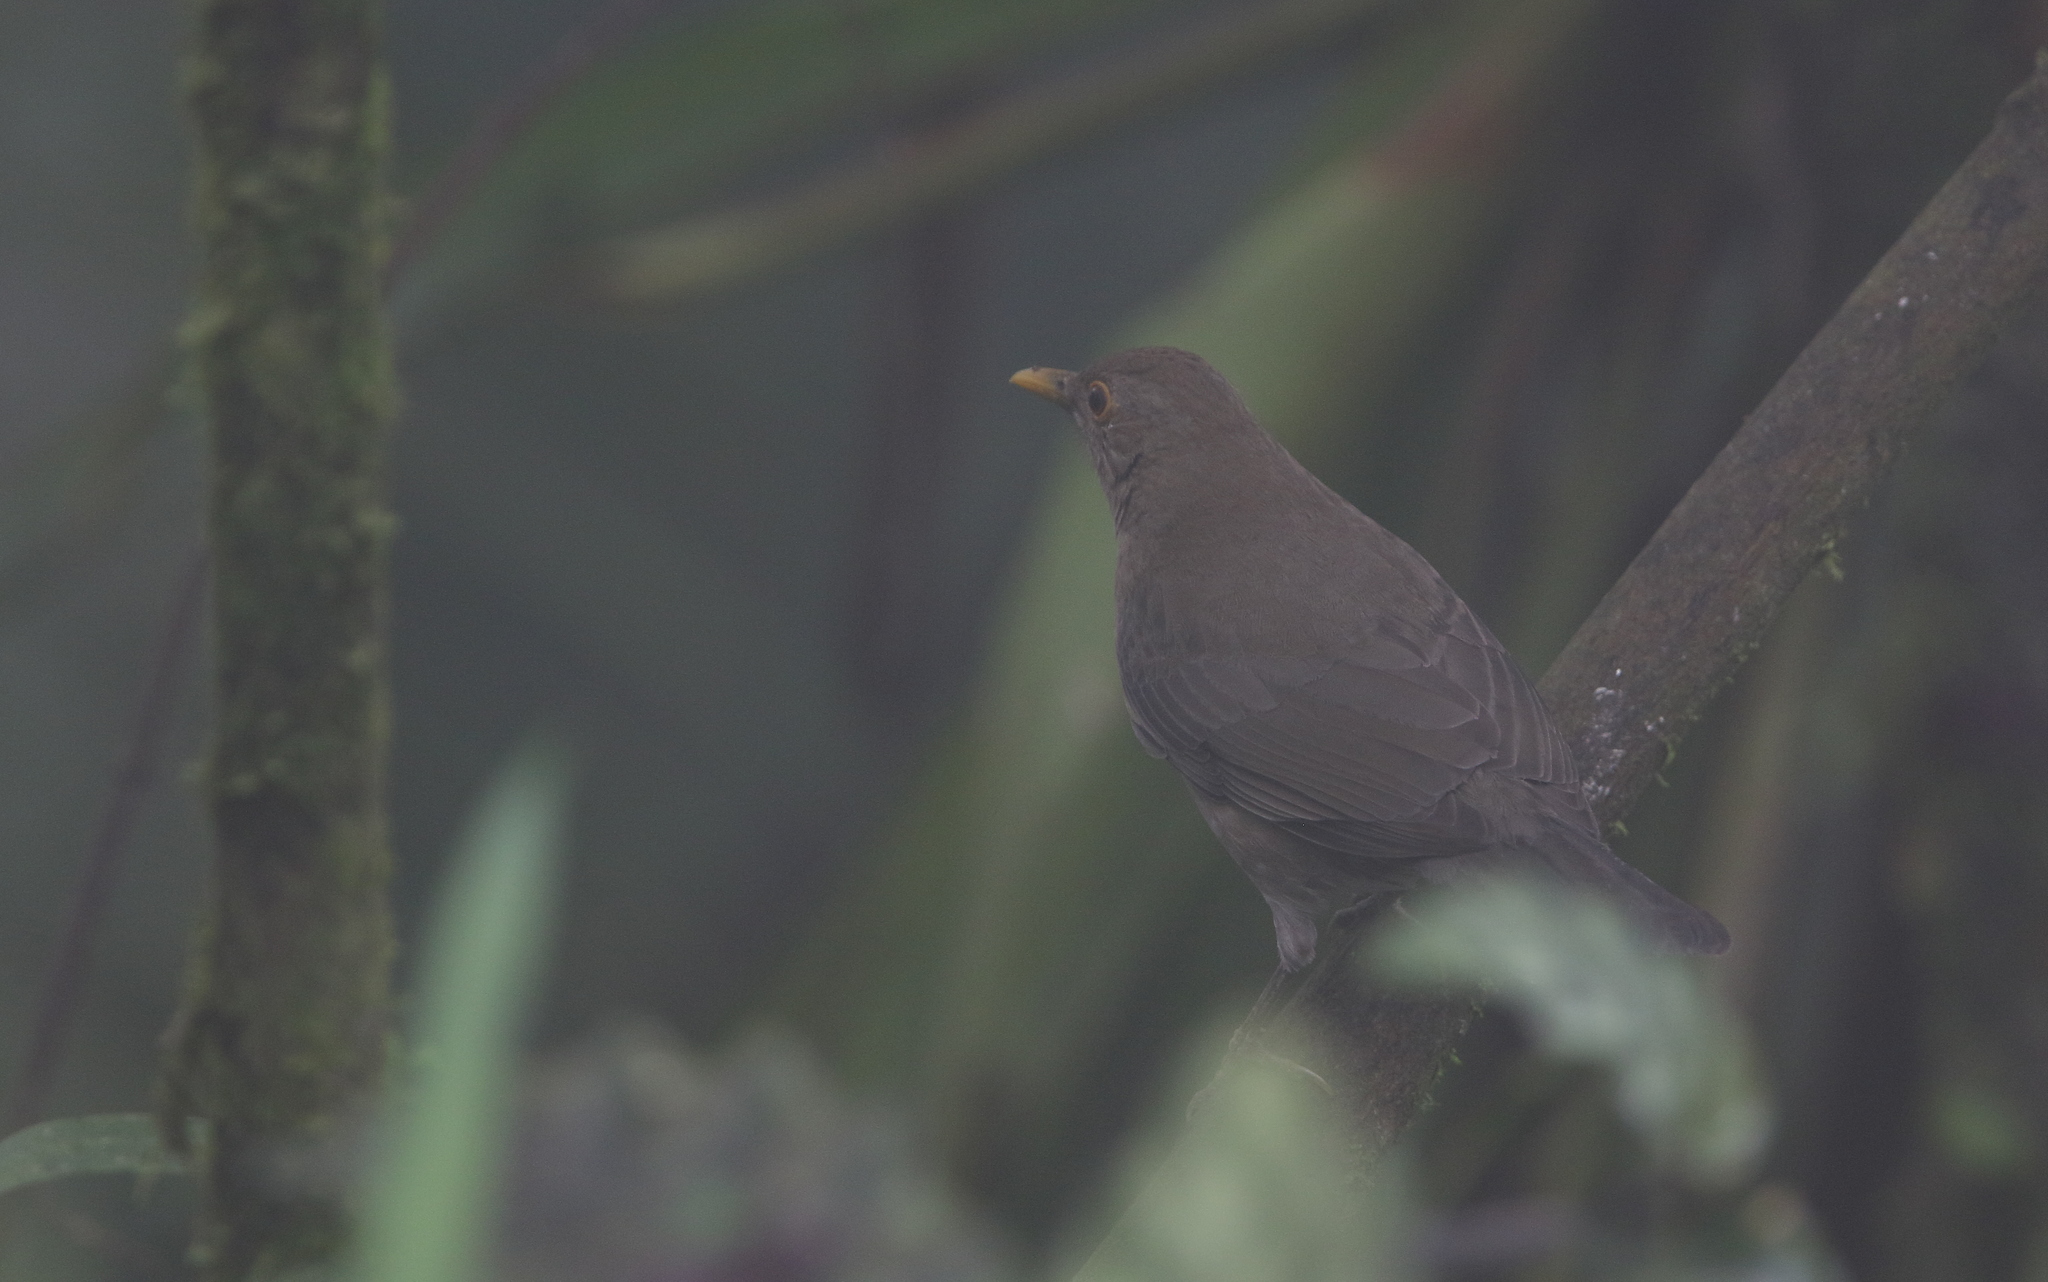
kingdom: Animalia
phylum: Chordata
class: Aves
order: Passeriformes
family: Turdidae
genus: Turdus
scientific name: Turdus maculirostris
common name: Ecuadorian thrush
